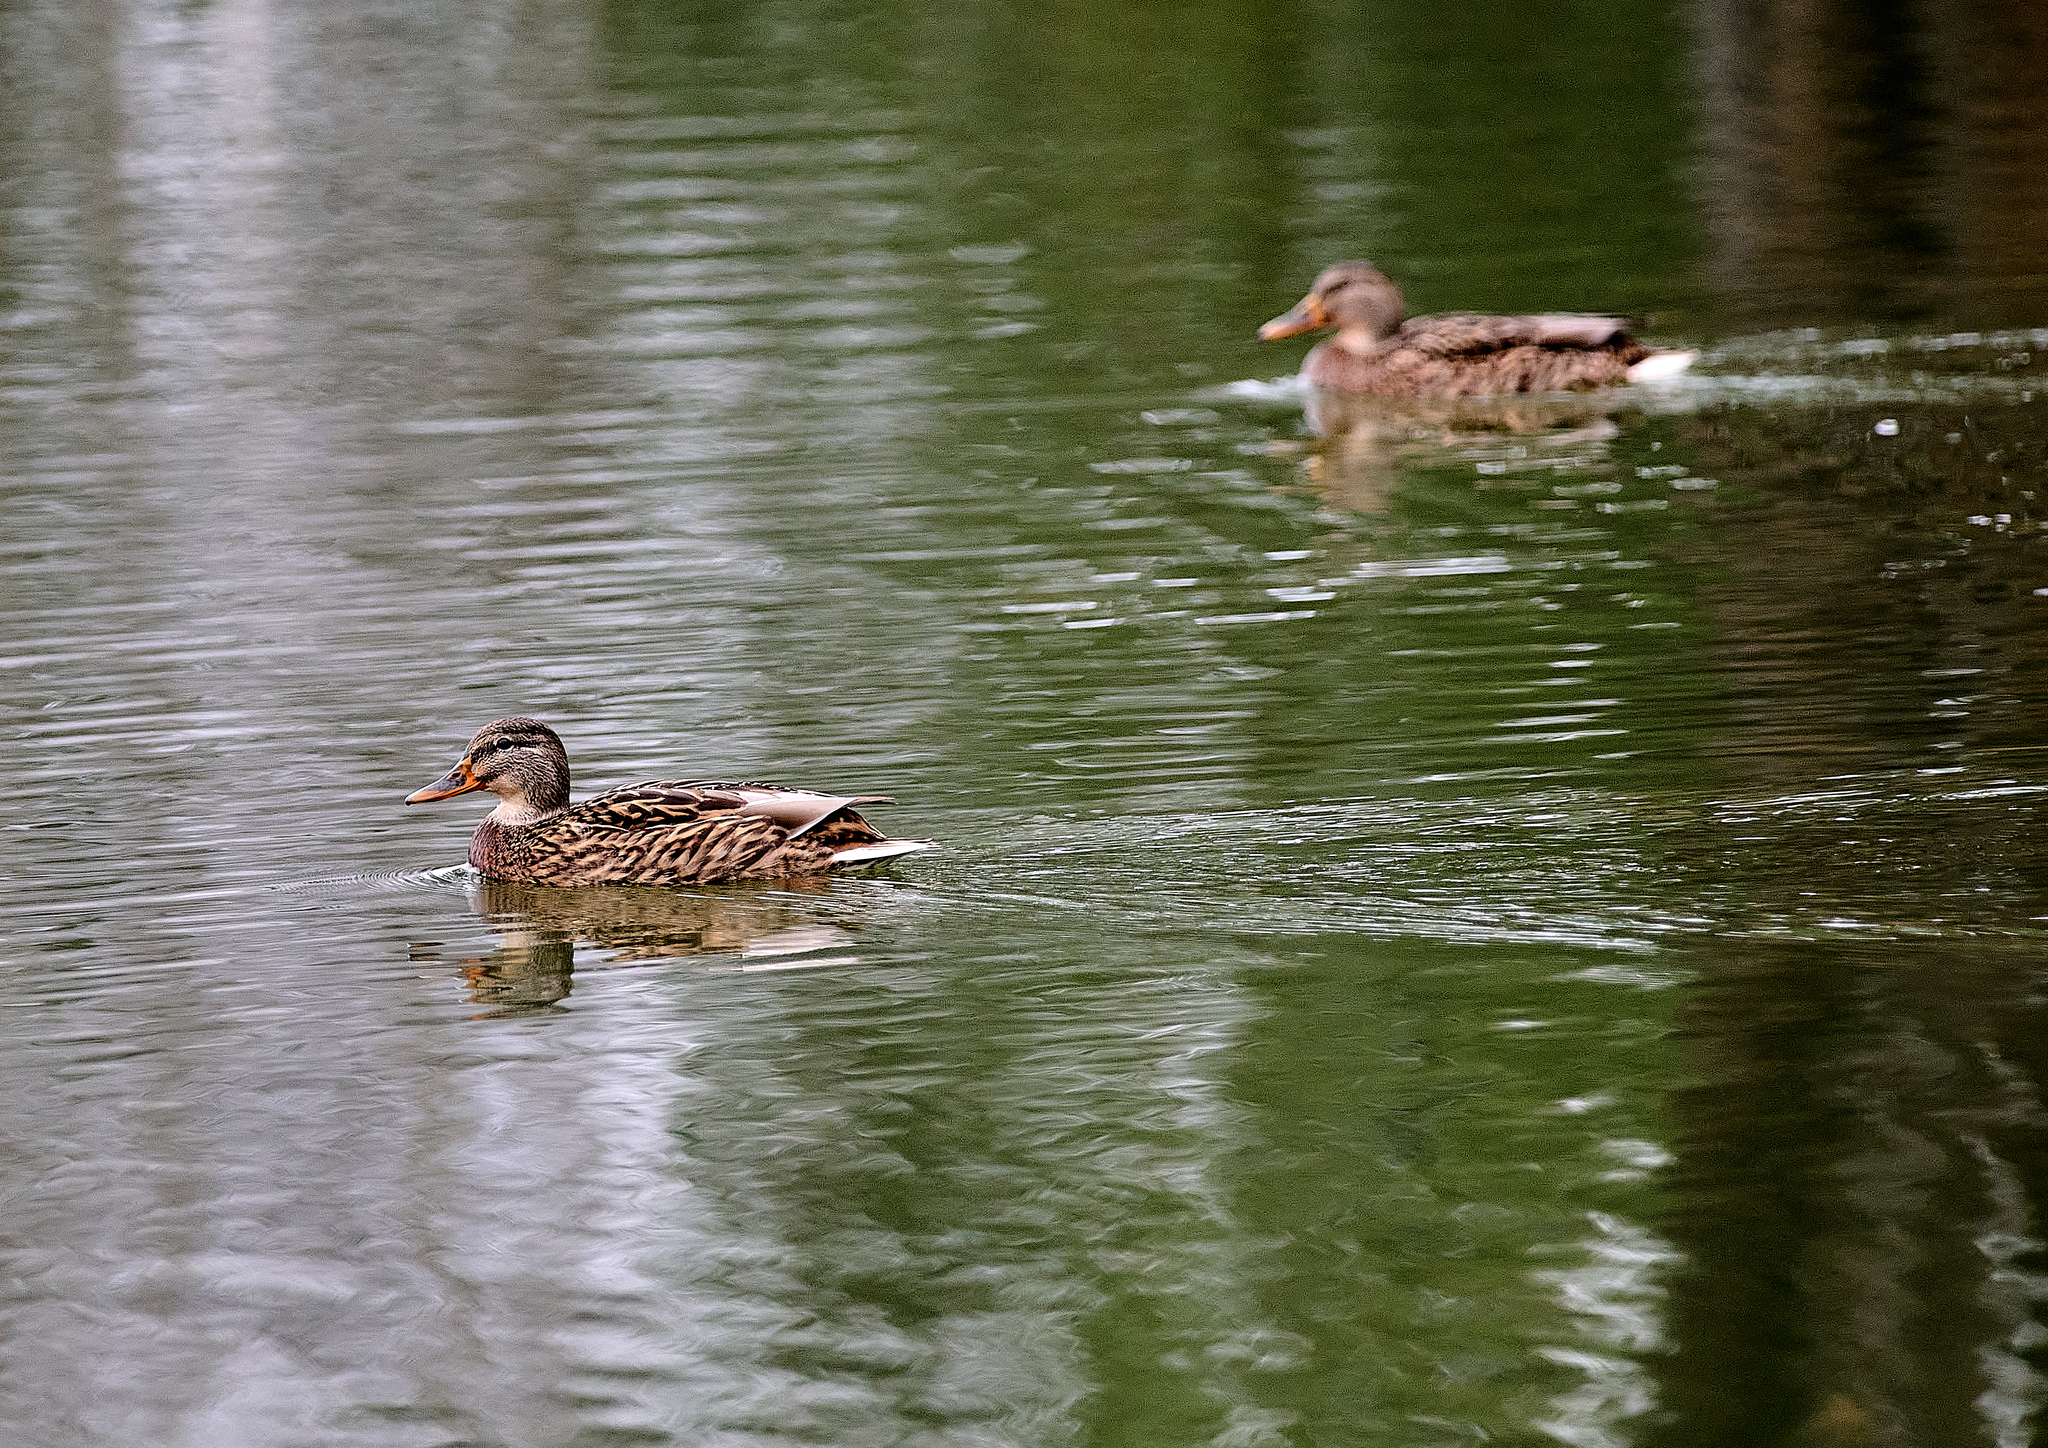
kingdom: Animalia
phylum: Chordata
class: Aves
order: Anseriformes
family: Anatidae
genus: Anas
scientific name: Anas platyrhynchos
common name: Mallard
